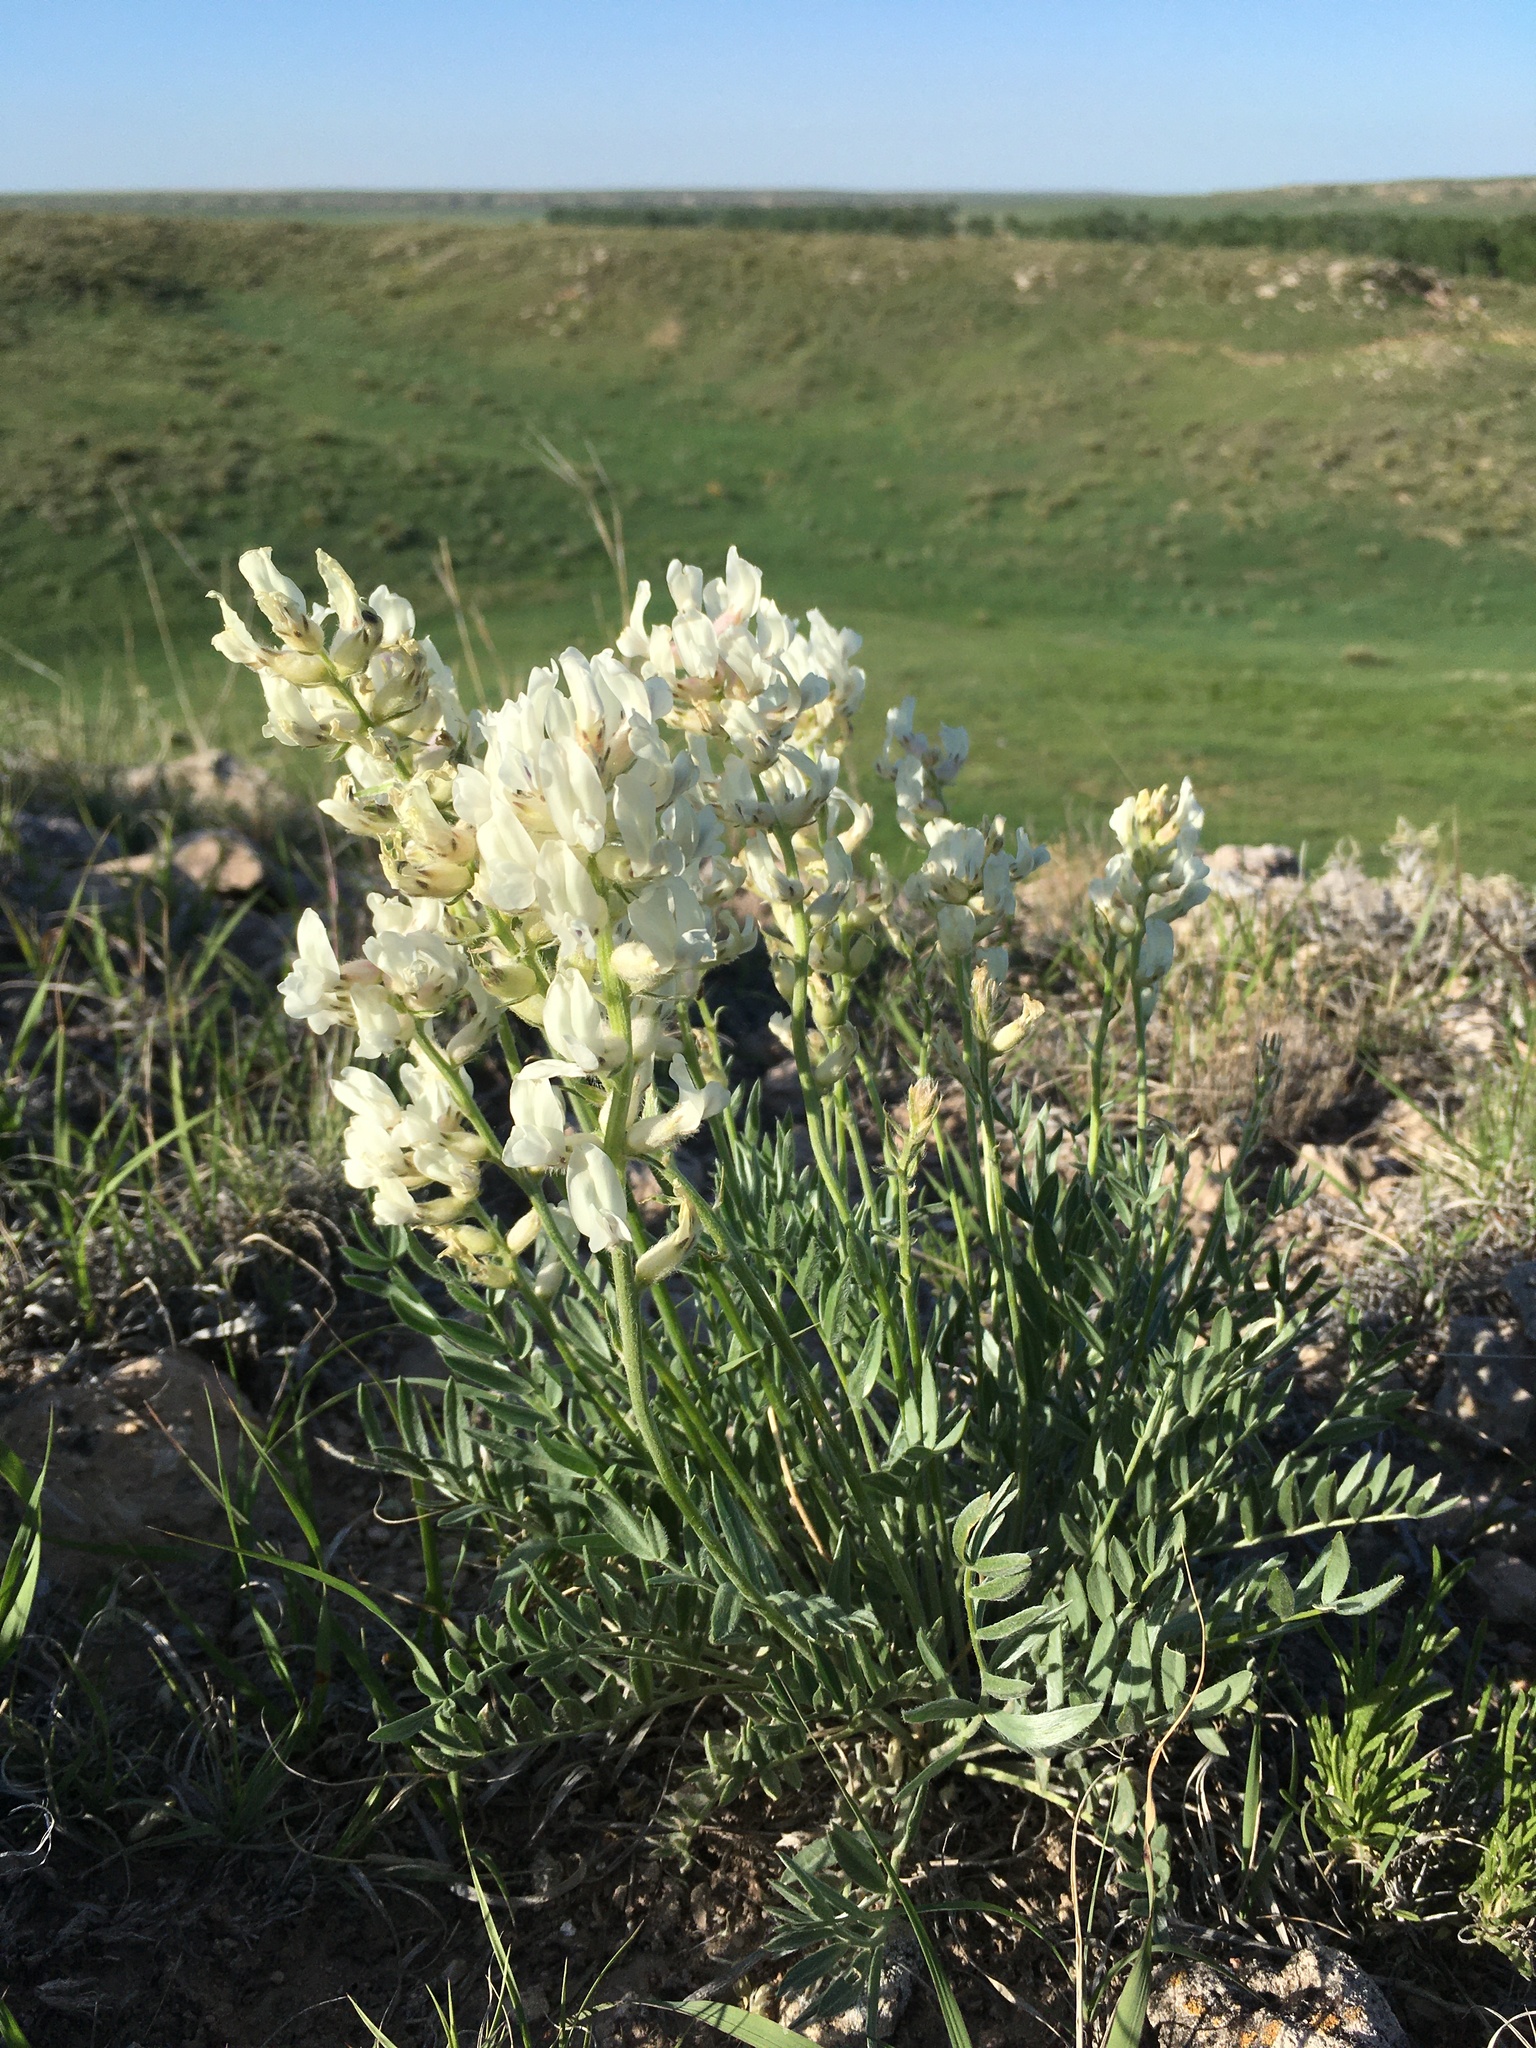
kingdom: Plantae
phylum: Tracheophyta
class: Magnoliopsida
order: Fabales
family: Fabaceae
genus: Oxytropis
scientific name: Oxytropis sericea
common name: Silky locoweed
